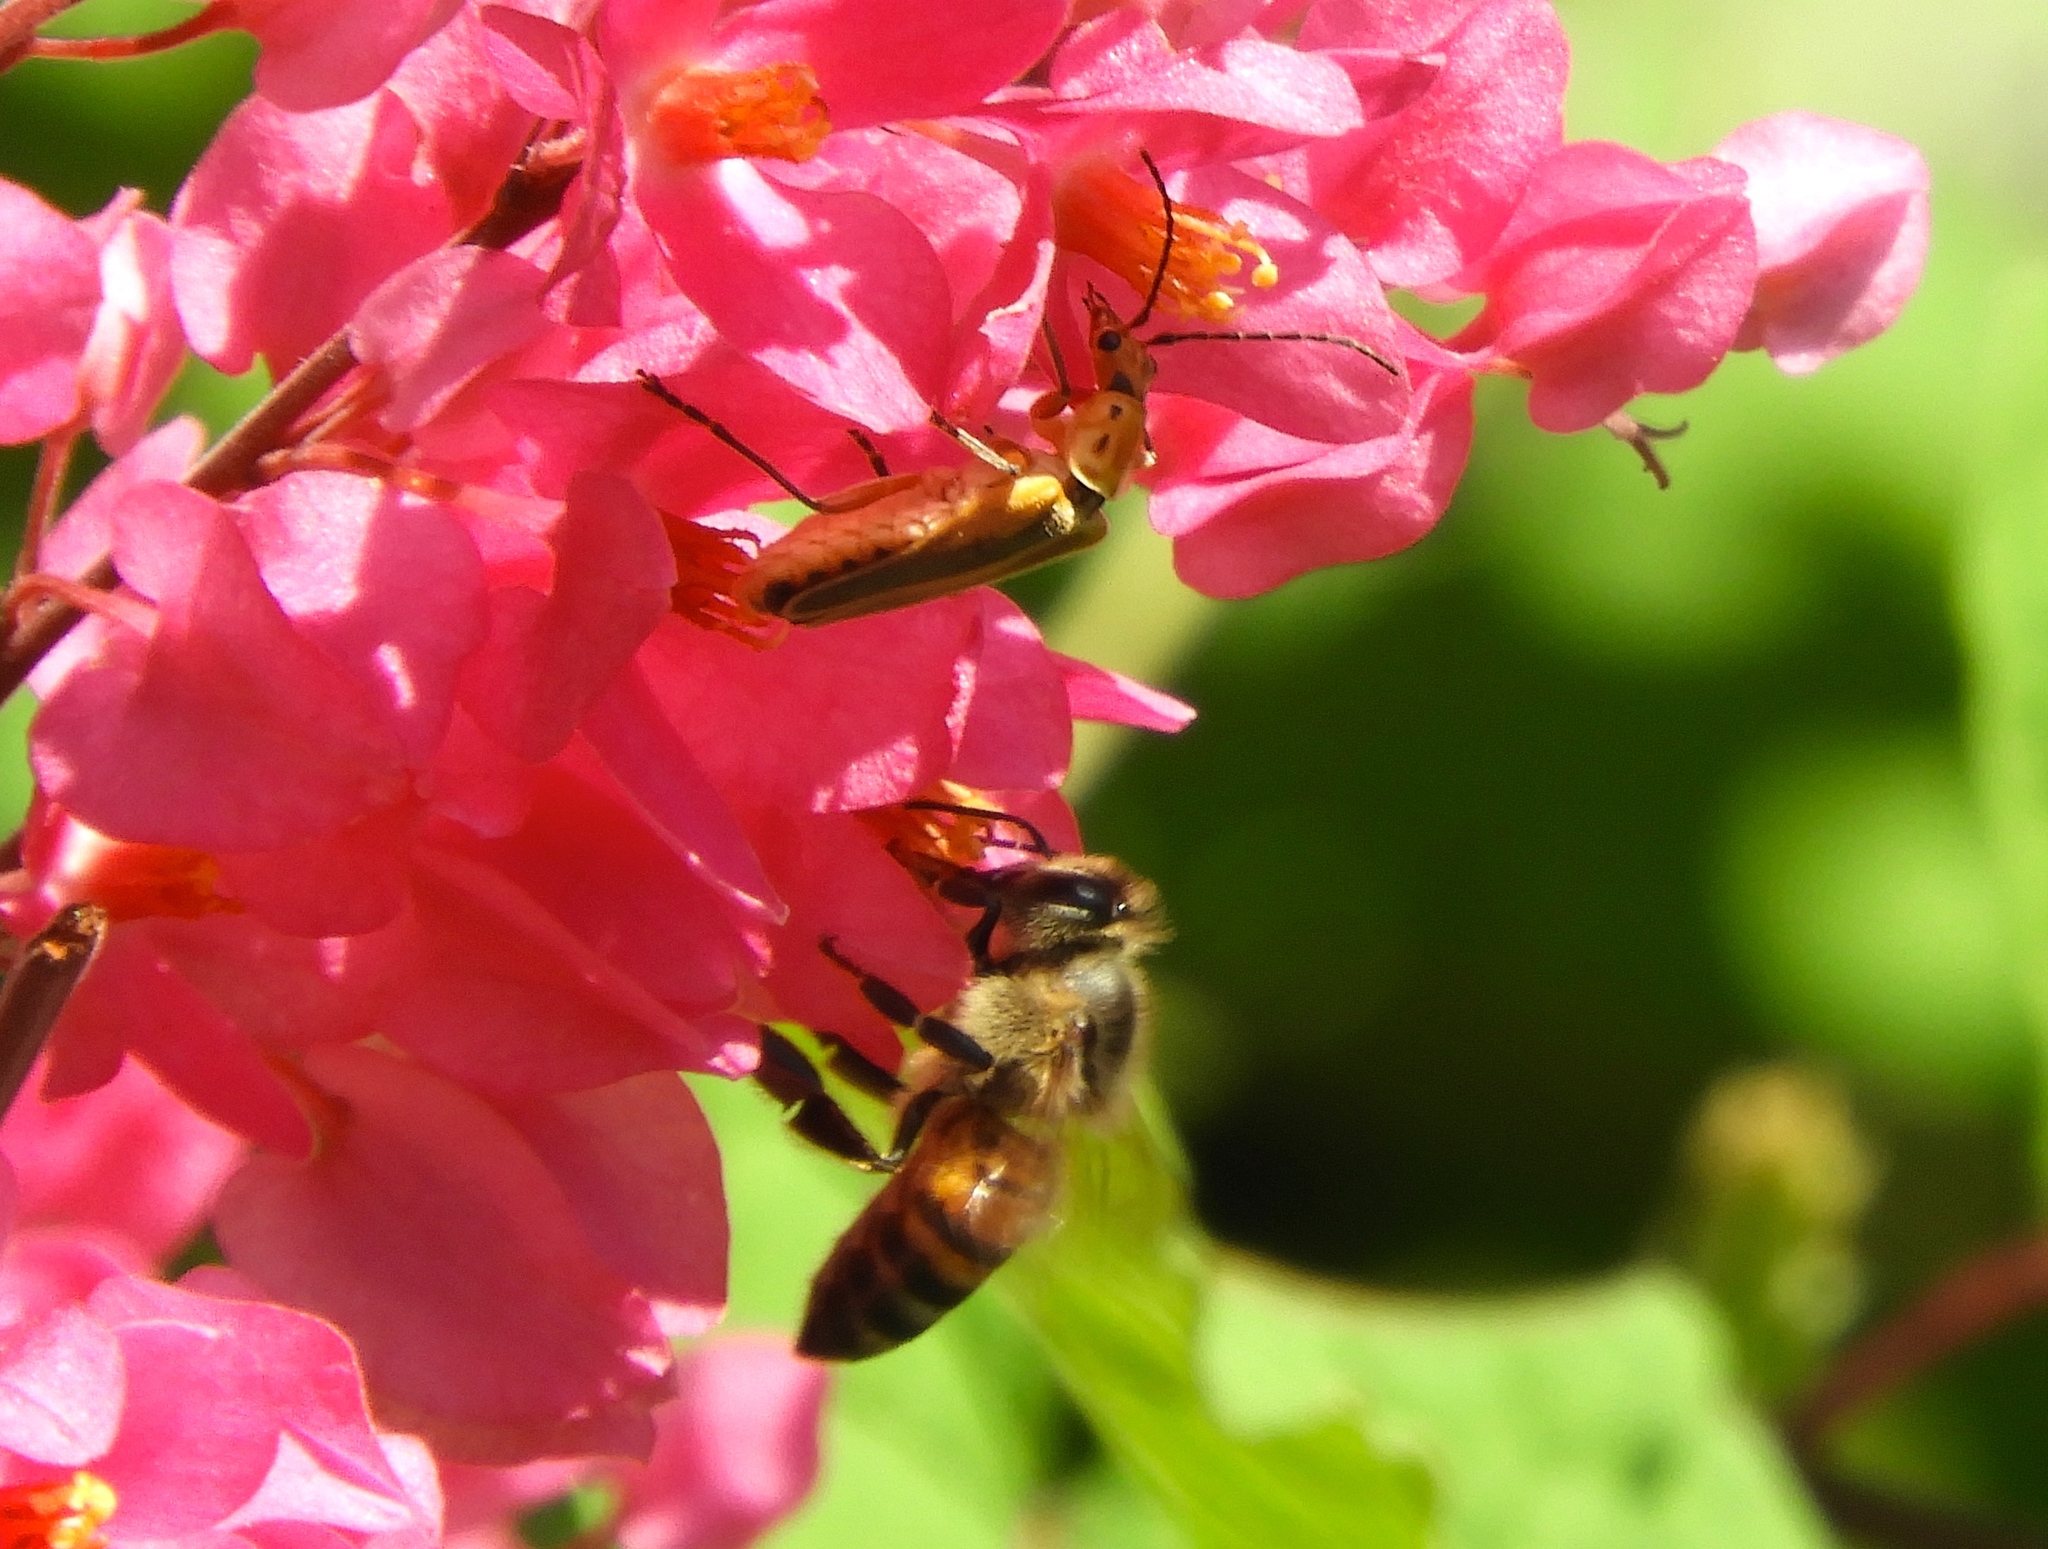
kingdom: Animalia
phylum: Arthropoda
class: Insecta
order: Coleoptera
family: Cantharidae
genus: Chauliognathus
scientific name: Chauliognathus
